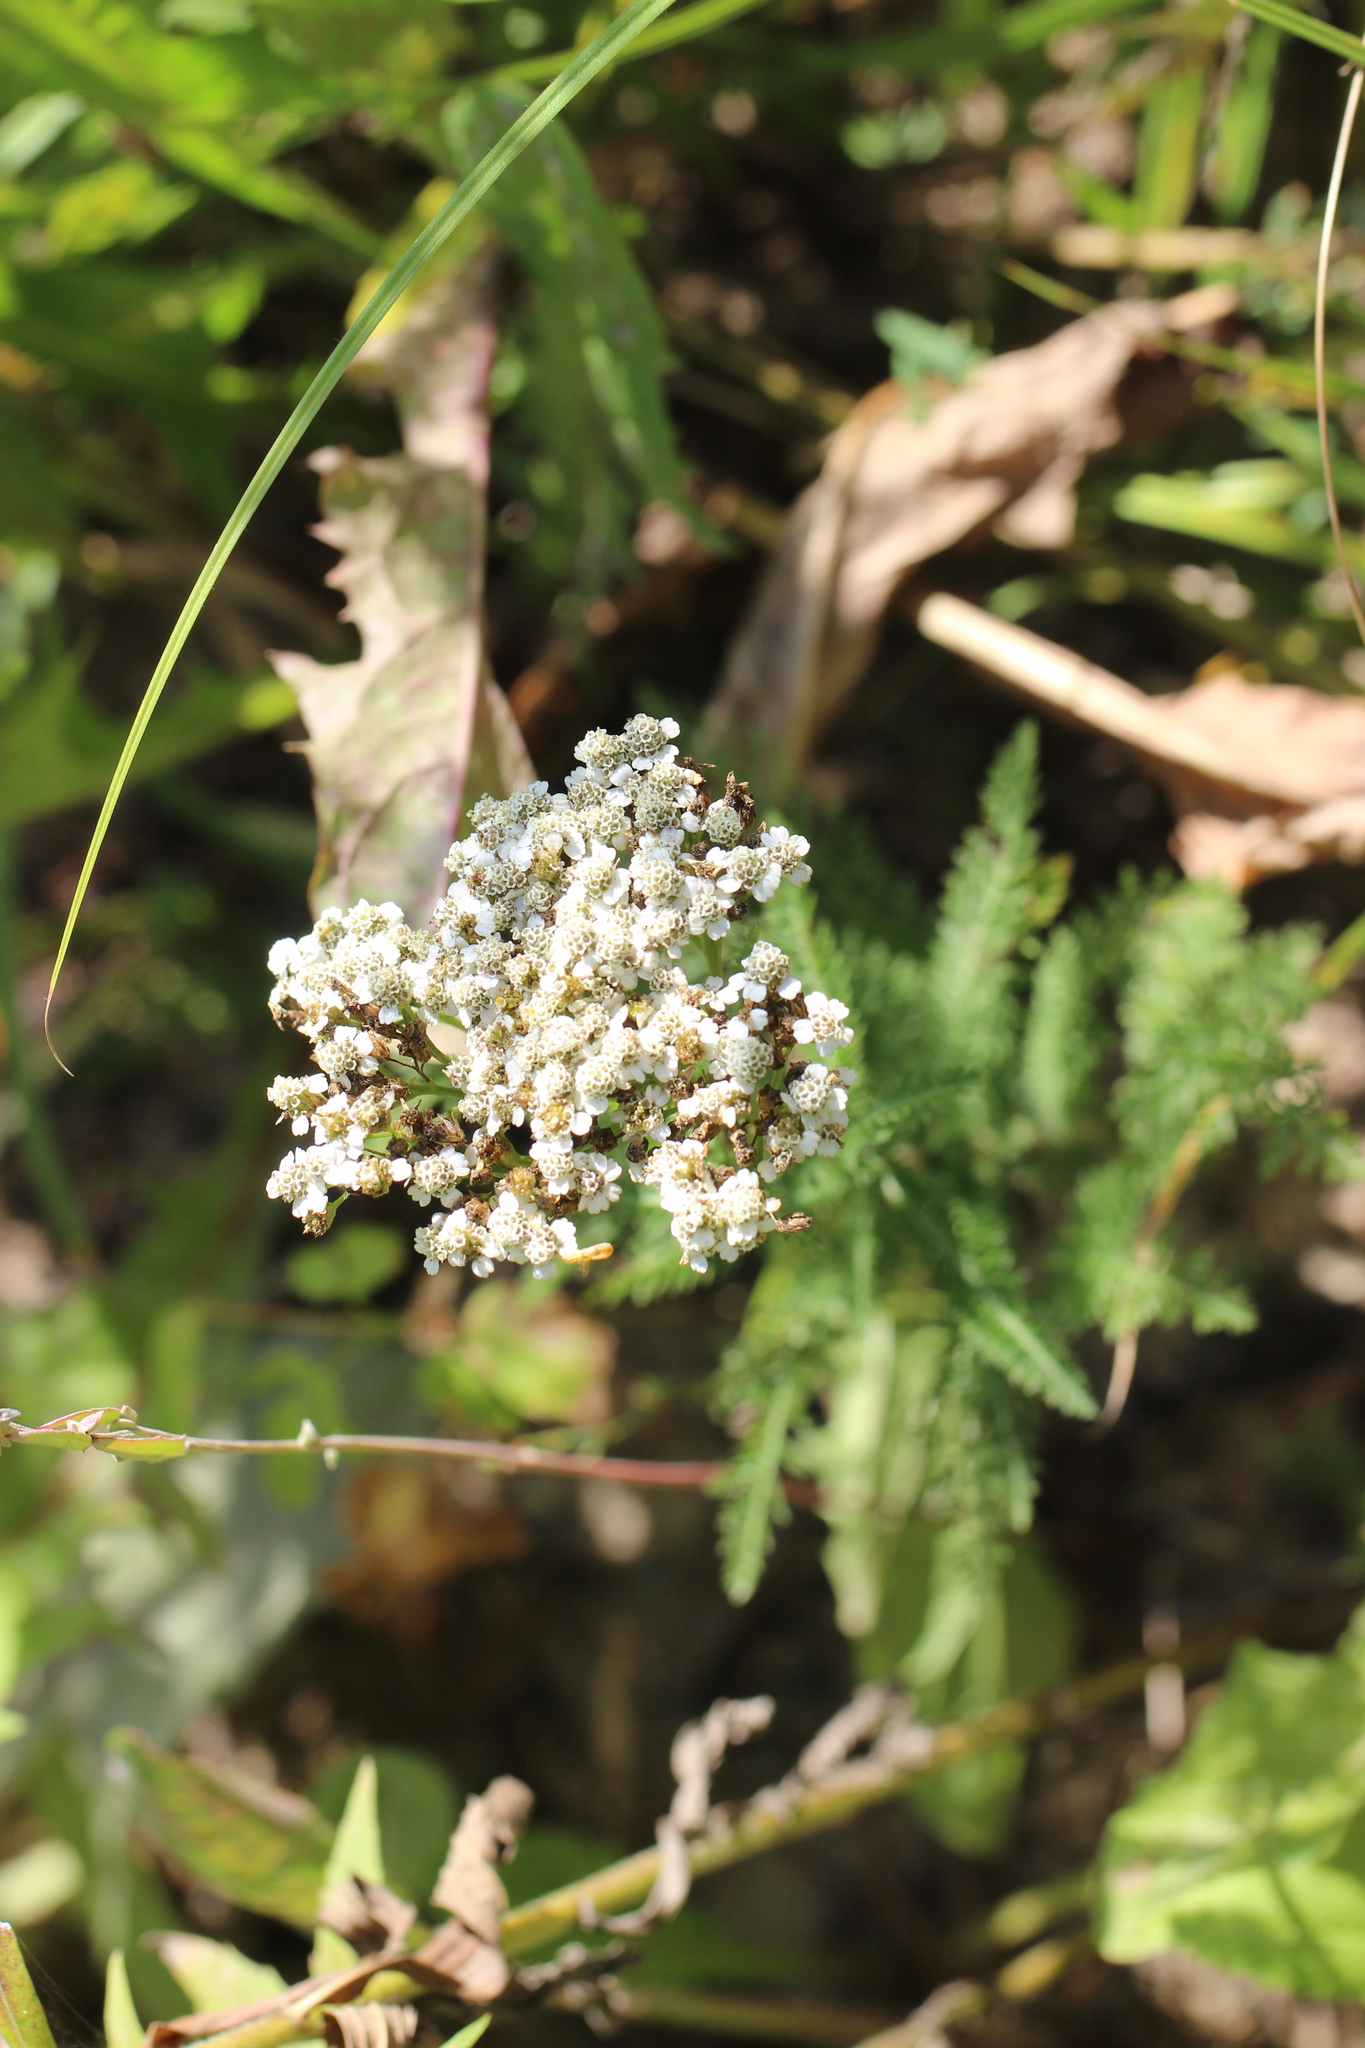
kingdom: Plantae
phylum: Tracheophyta
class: Magnoliopsida
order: Asterales
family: Asteraceae
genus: Achillea
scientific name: Achillea millefolium
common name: Yarrow
